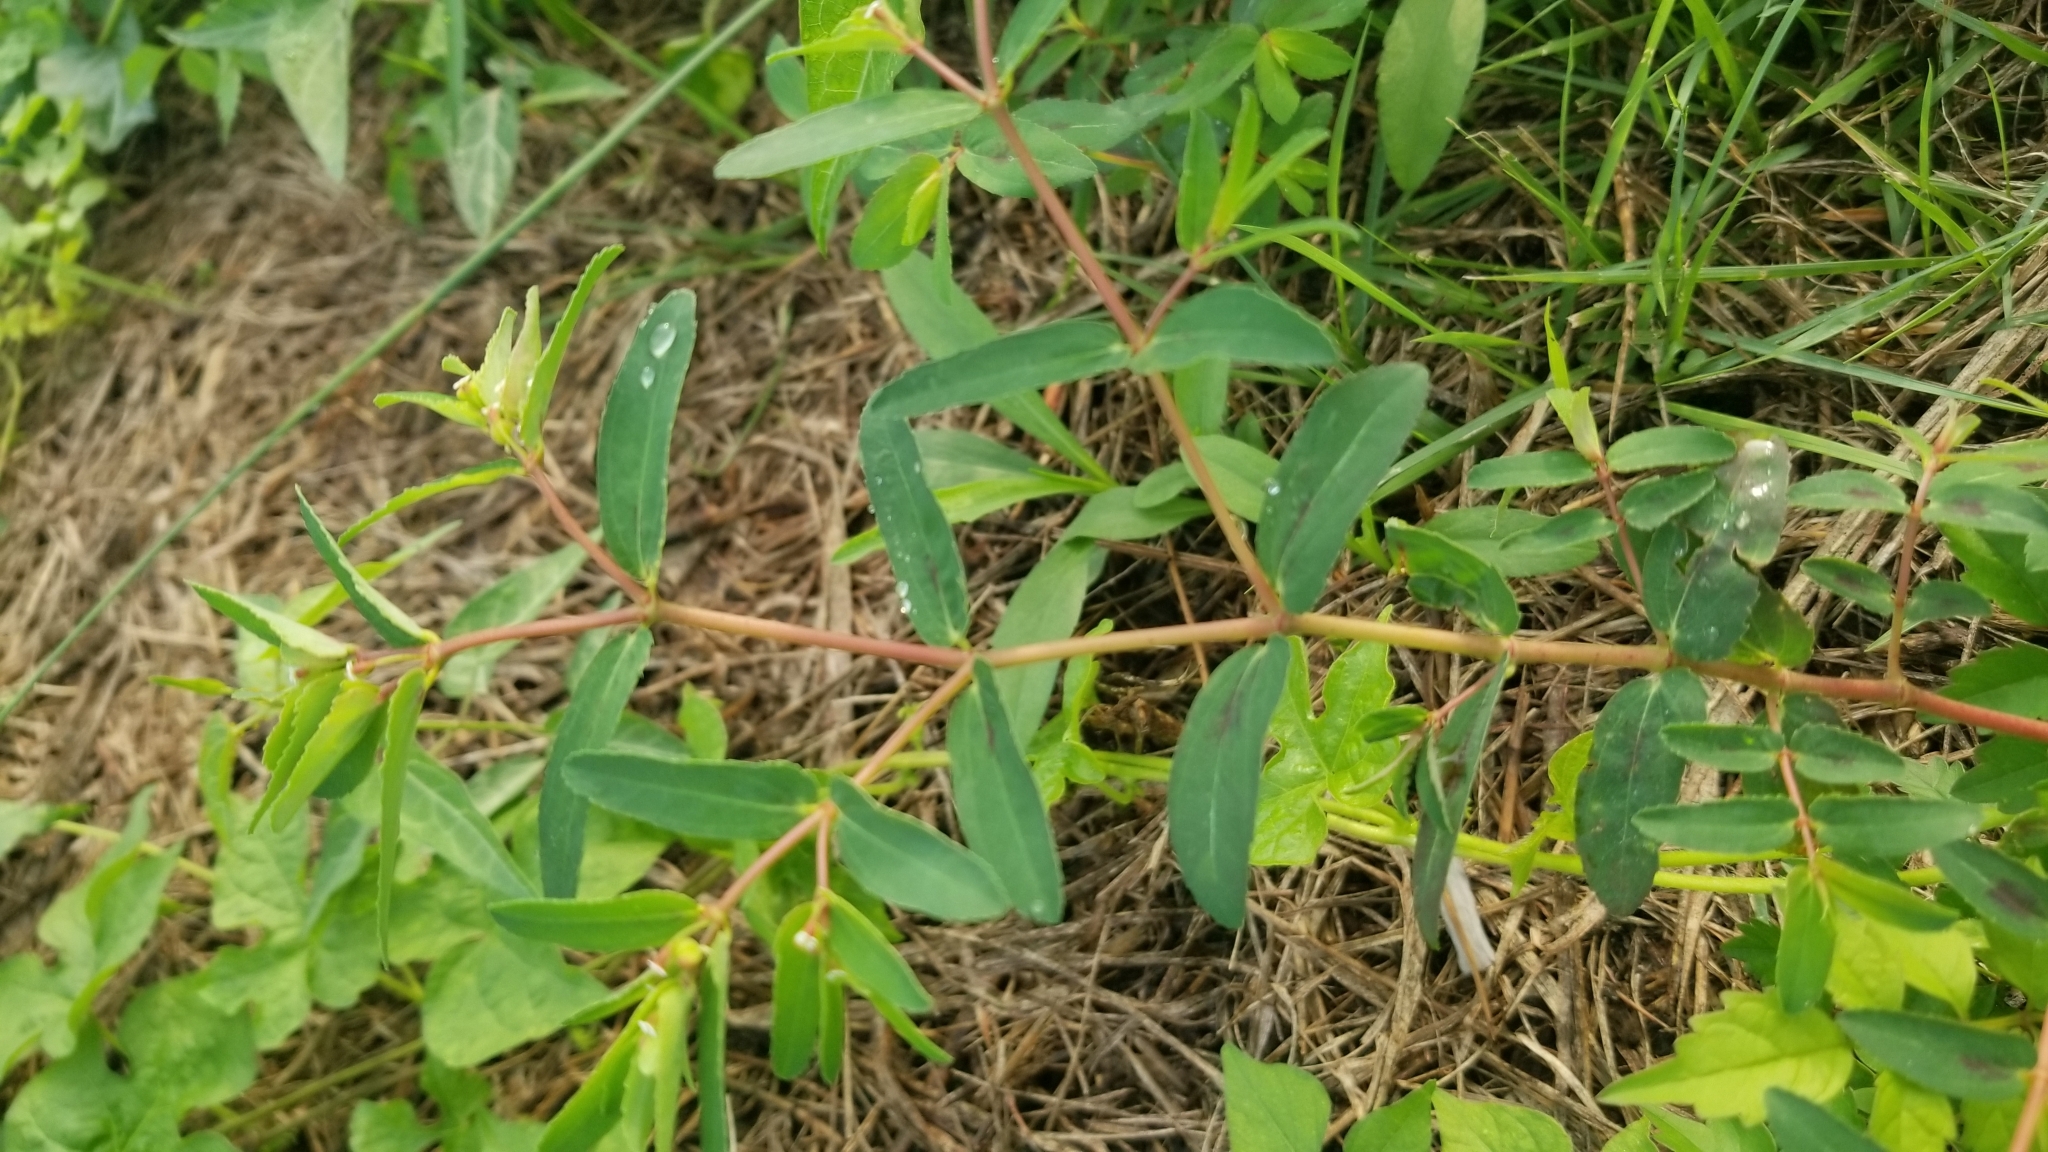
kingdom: Plantae
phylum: Tracheophyta
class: Magnoliopsida
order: Malpighiales
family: Euphorbiaceae
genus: Euphorbia
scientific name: Euphorbia nutans
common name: Eyebane
